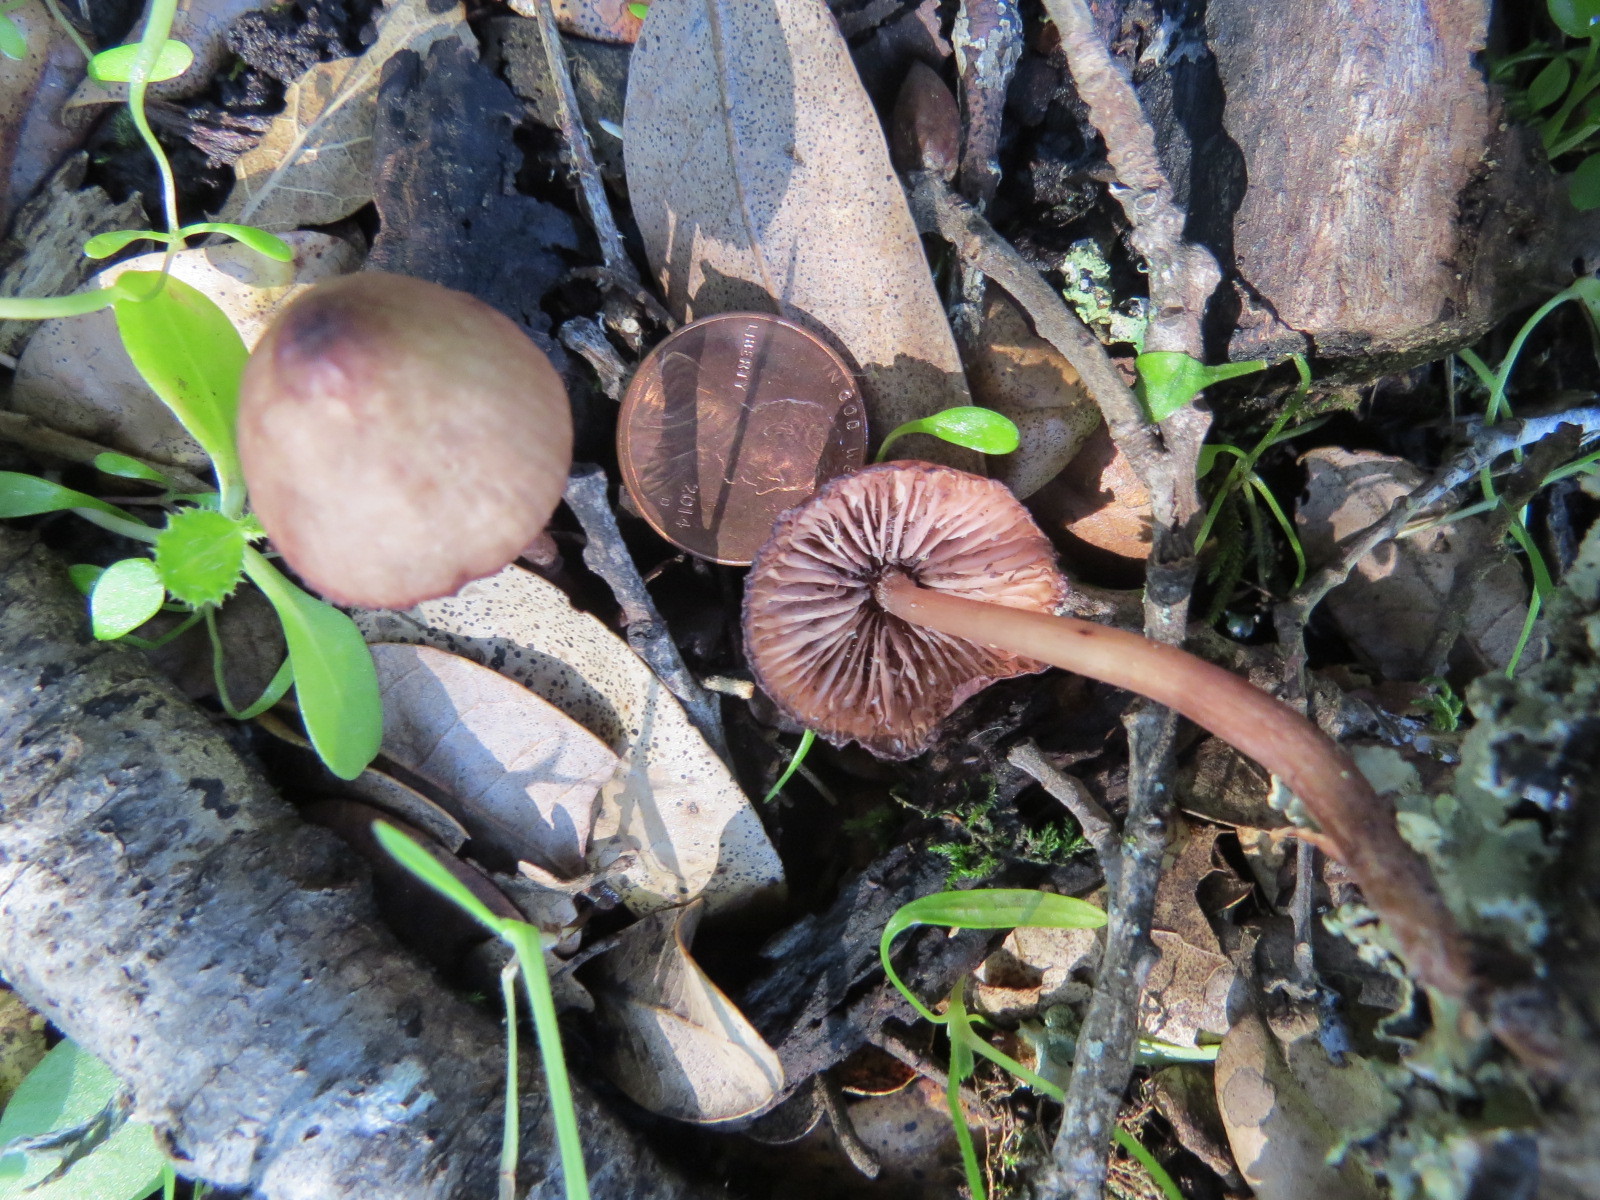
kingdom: Fungi
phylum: Basidiomycota
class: Agaricomycetes
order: Agaricales
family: Mycenaceae
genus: Mycena
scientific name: Mycena haematopus
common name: Burgundydrop bonnet
